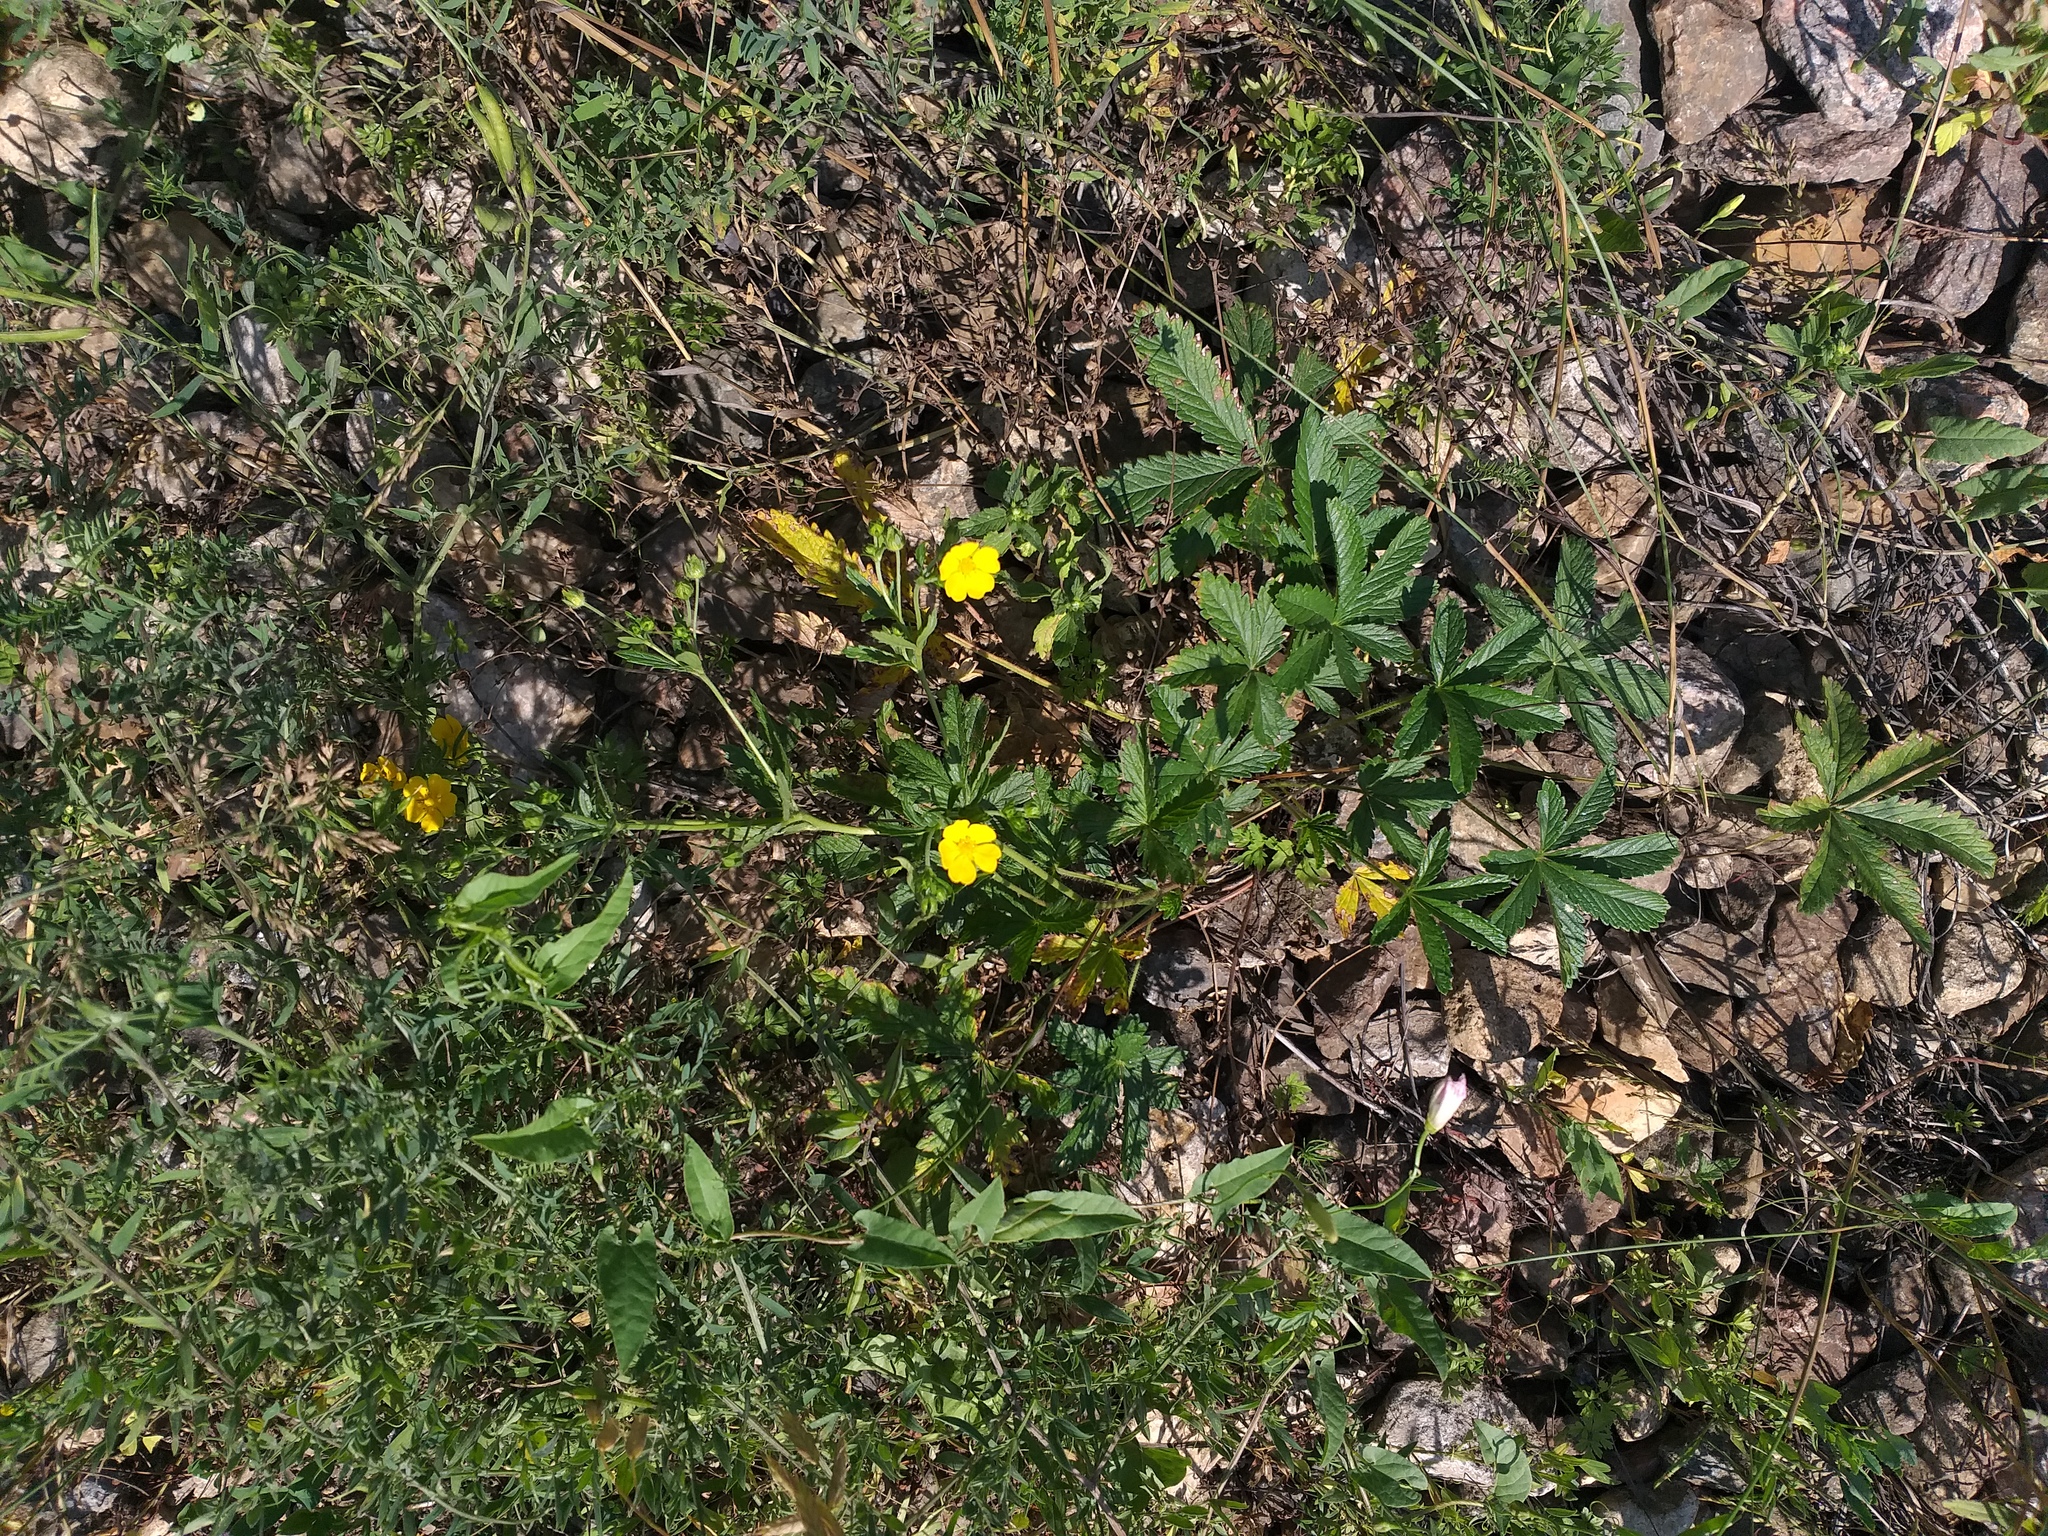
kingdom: Plantae
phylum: Tracheophyta
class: Magnoliopsida
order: Rosales
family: Rosaceae
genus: Potentilla
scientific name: Potentilla thuringiaca
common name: European cinquefoil
